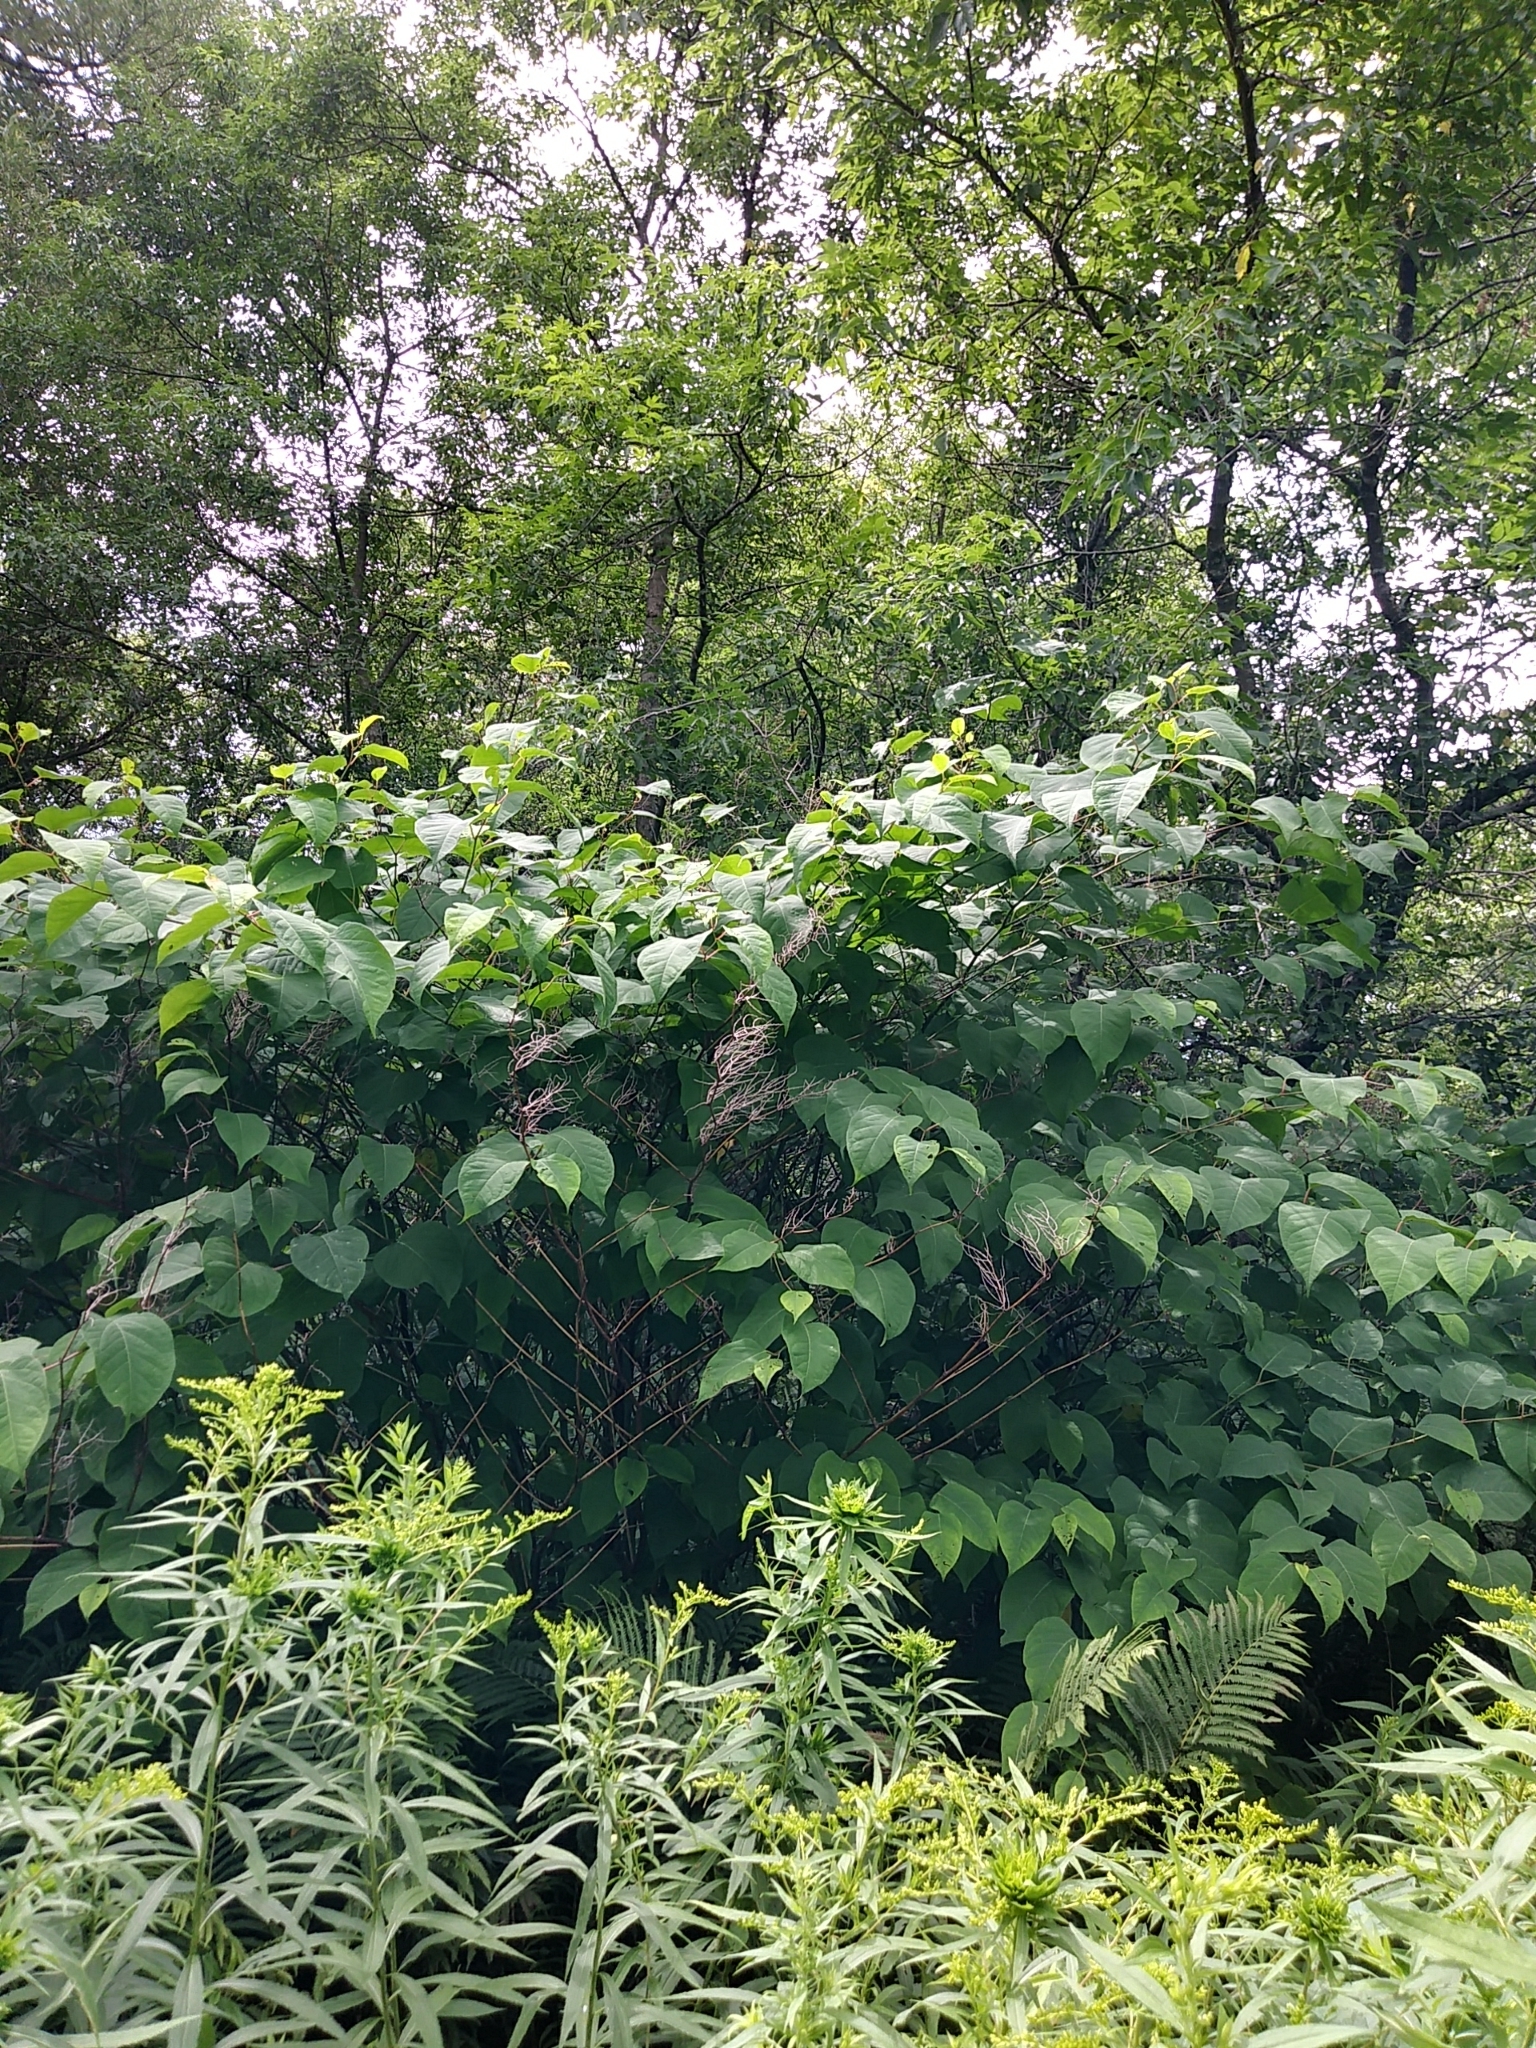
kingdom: Plantae
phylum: Tracheophyta
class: Magnoliopsida
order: Caryophyllales
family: Polygonaceae
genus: Reynoutria
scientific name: Reynoutria japonica
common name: Japanese knotweed
